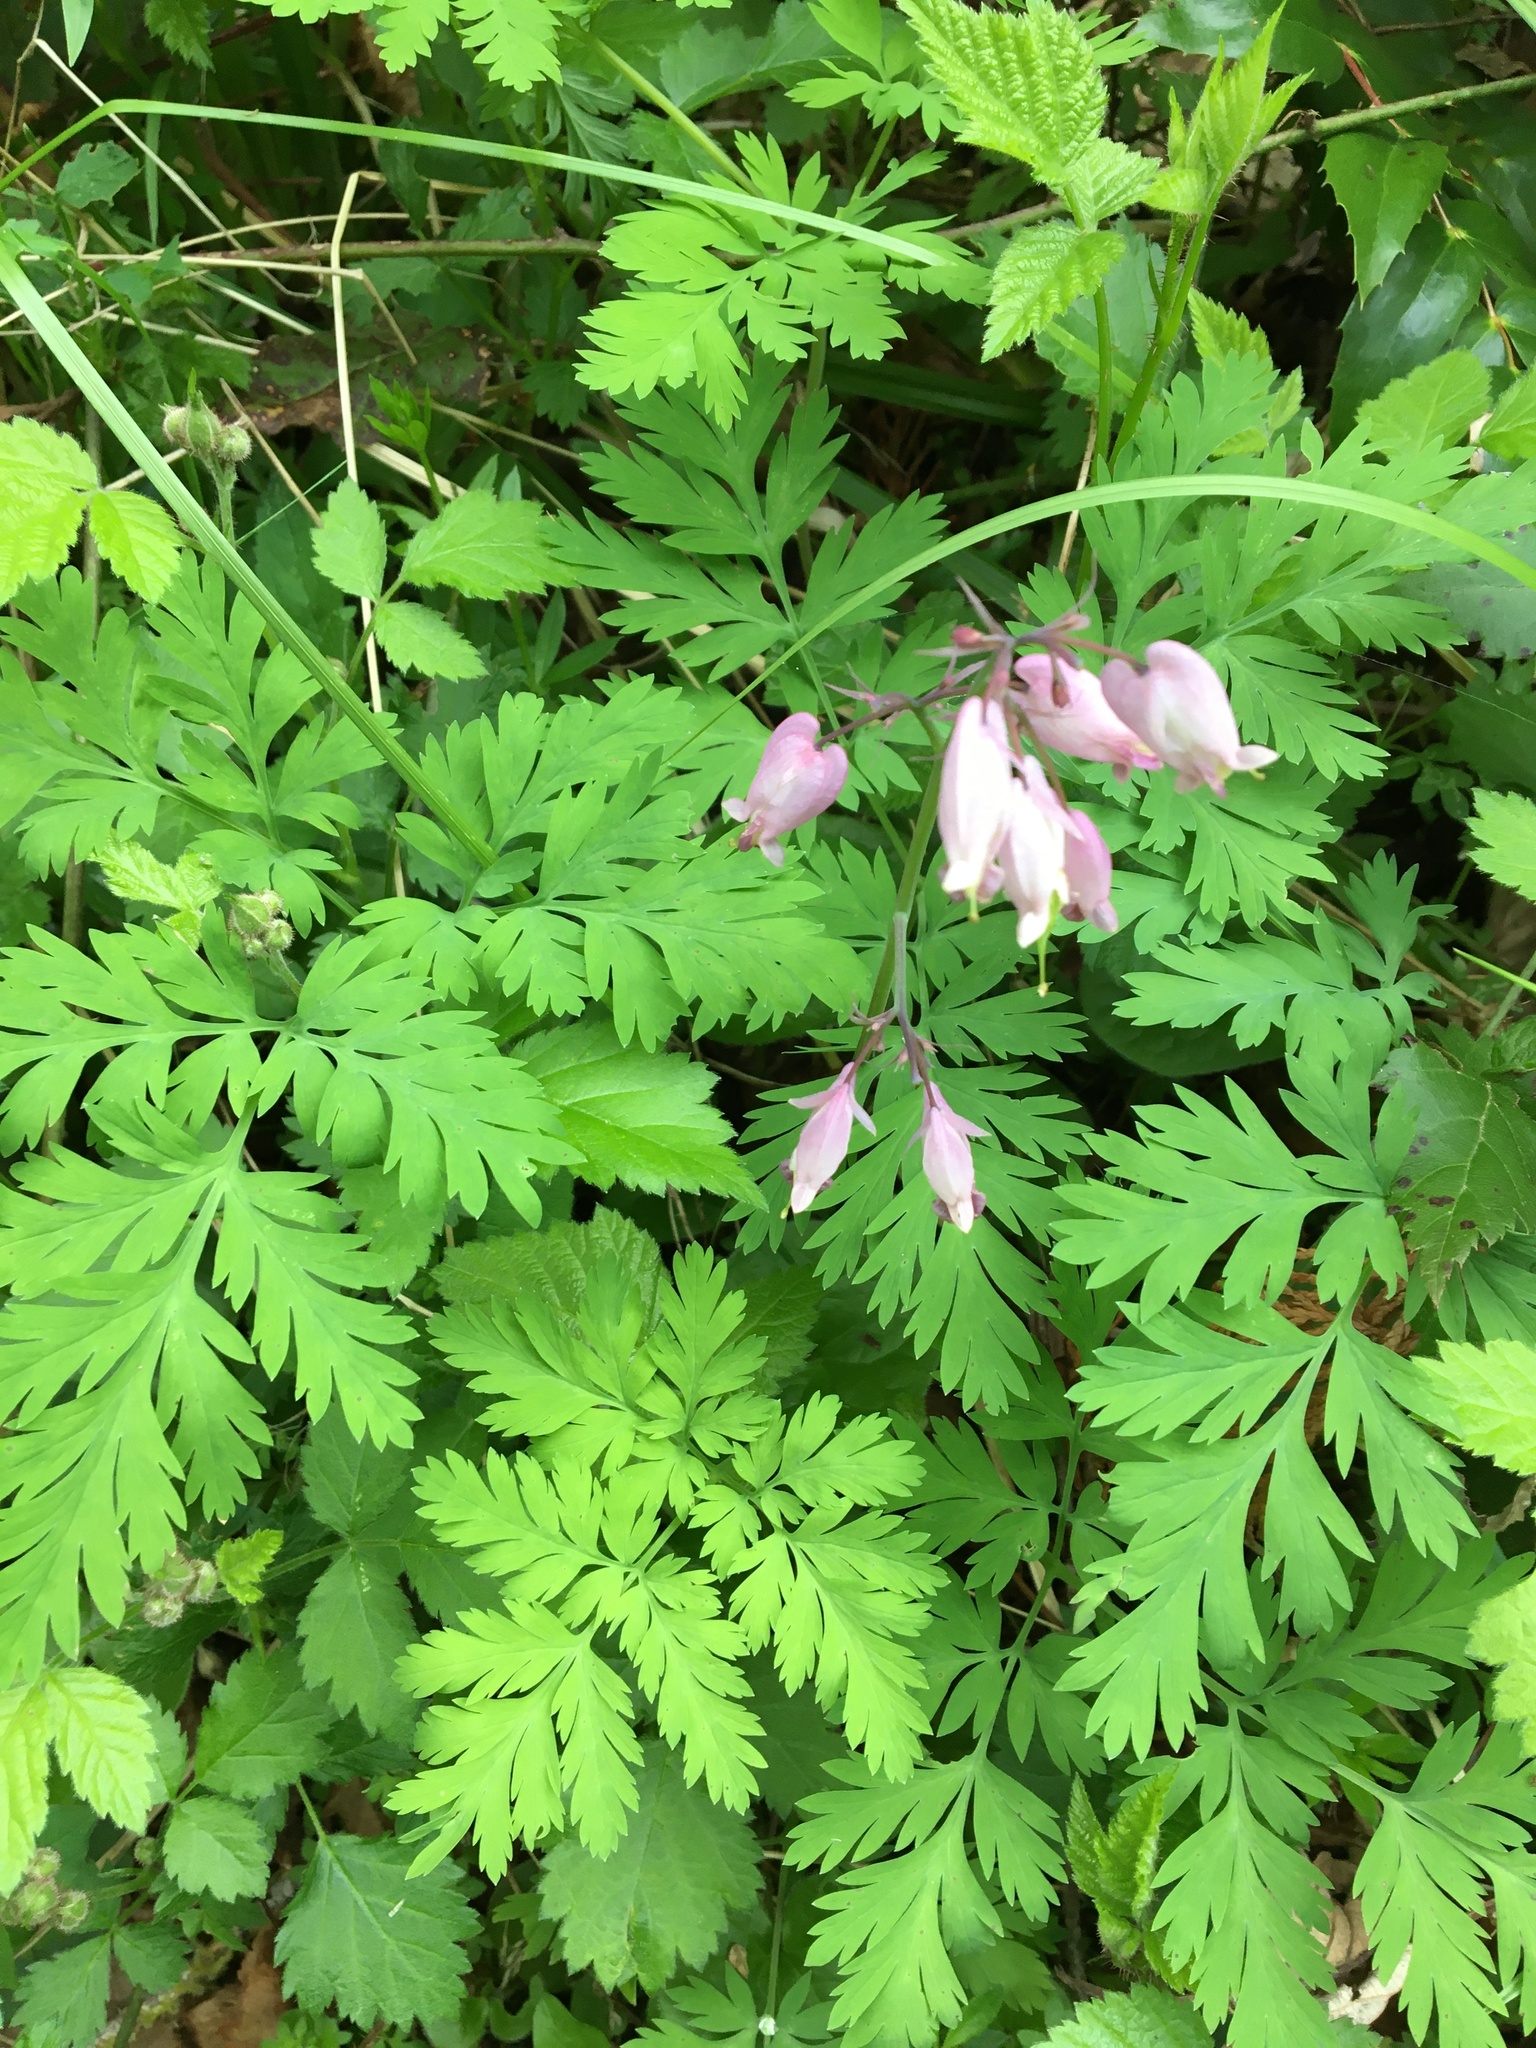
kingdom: Plantae
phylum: Tracheophyta
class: Magnoliopsida
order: Ranunculales
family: Papaveraceae
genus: Dicentra
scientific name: Dicentra formosa
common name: Bleeding-heart
